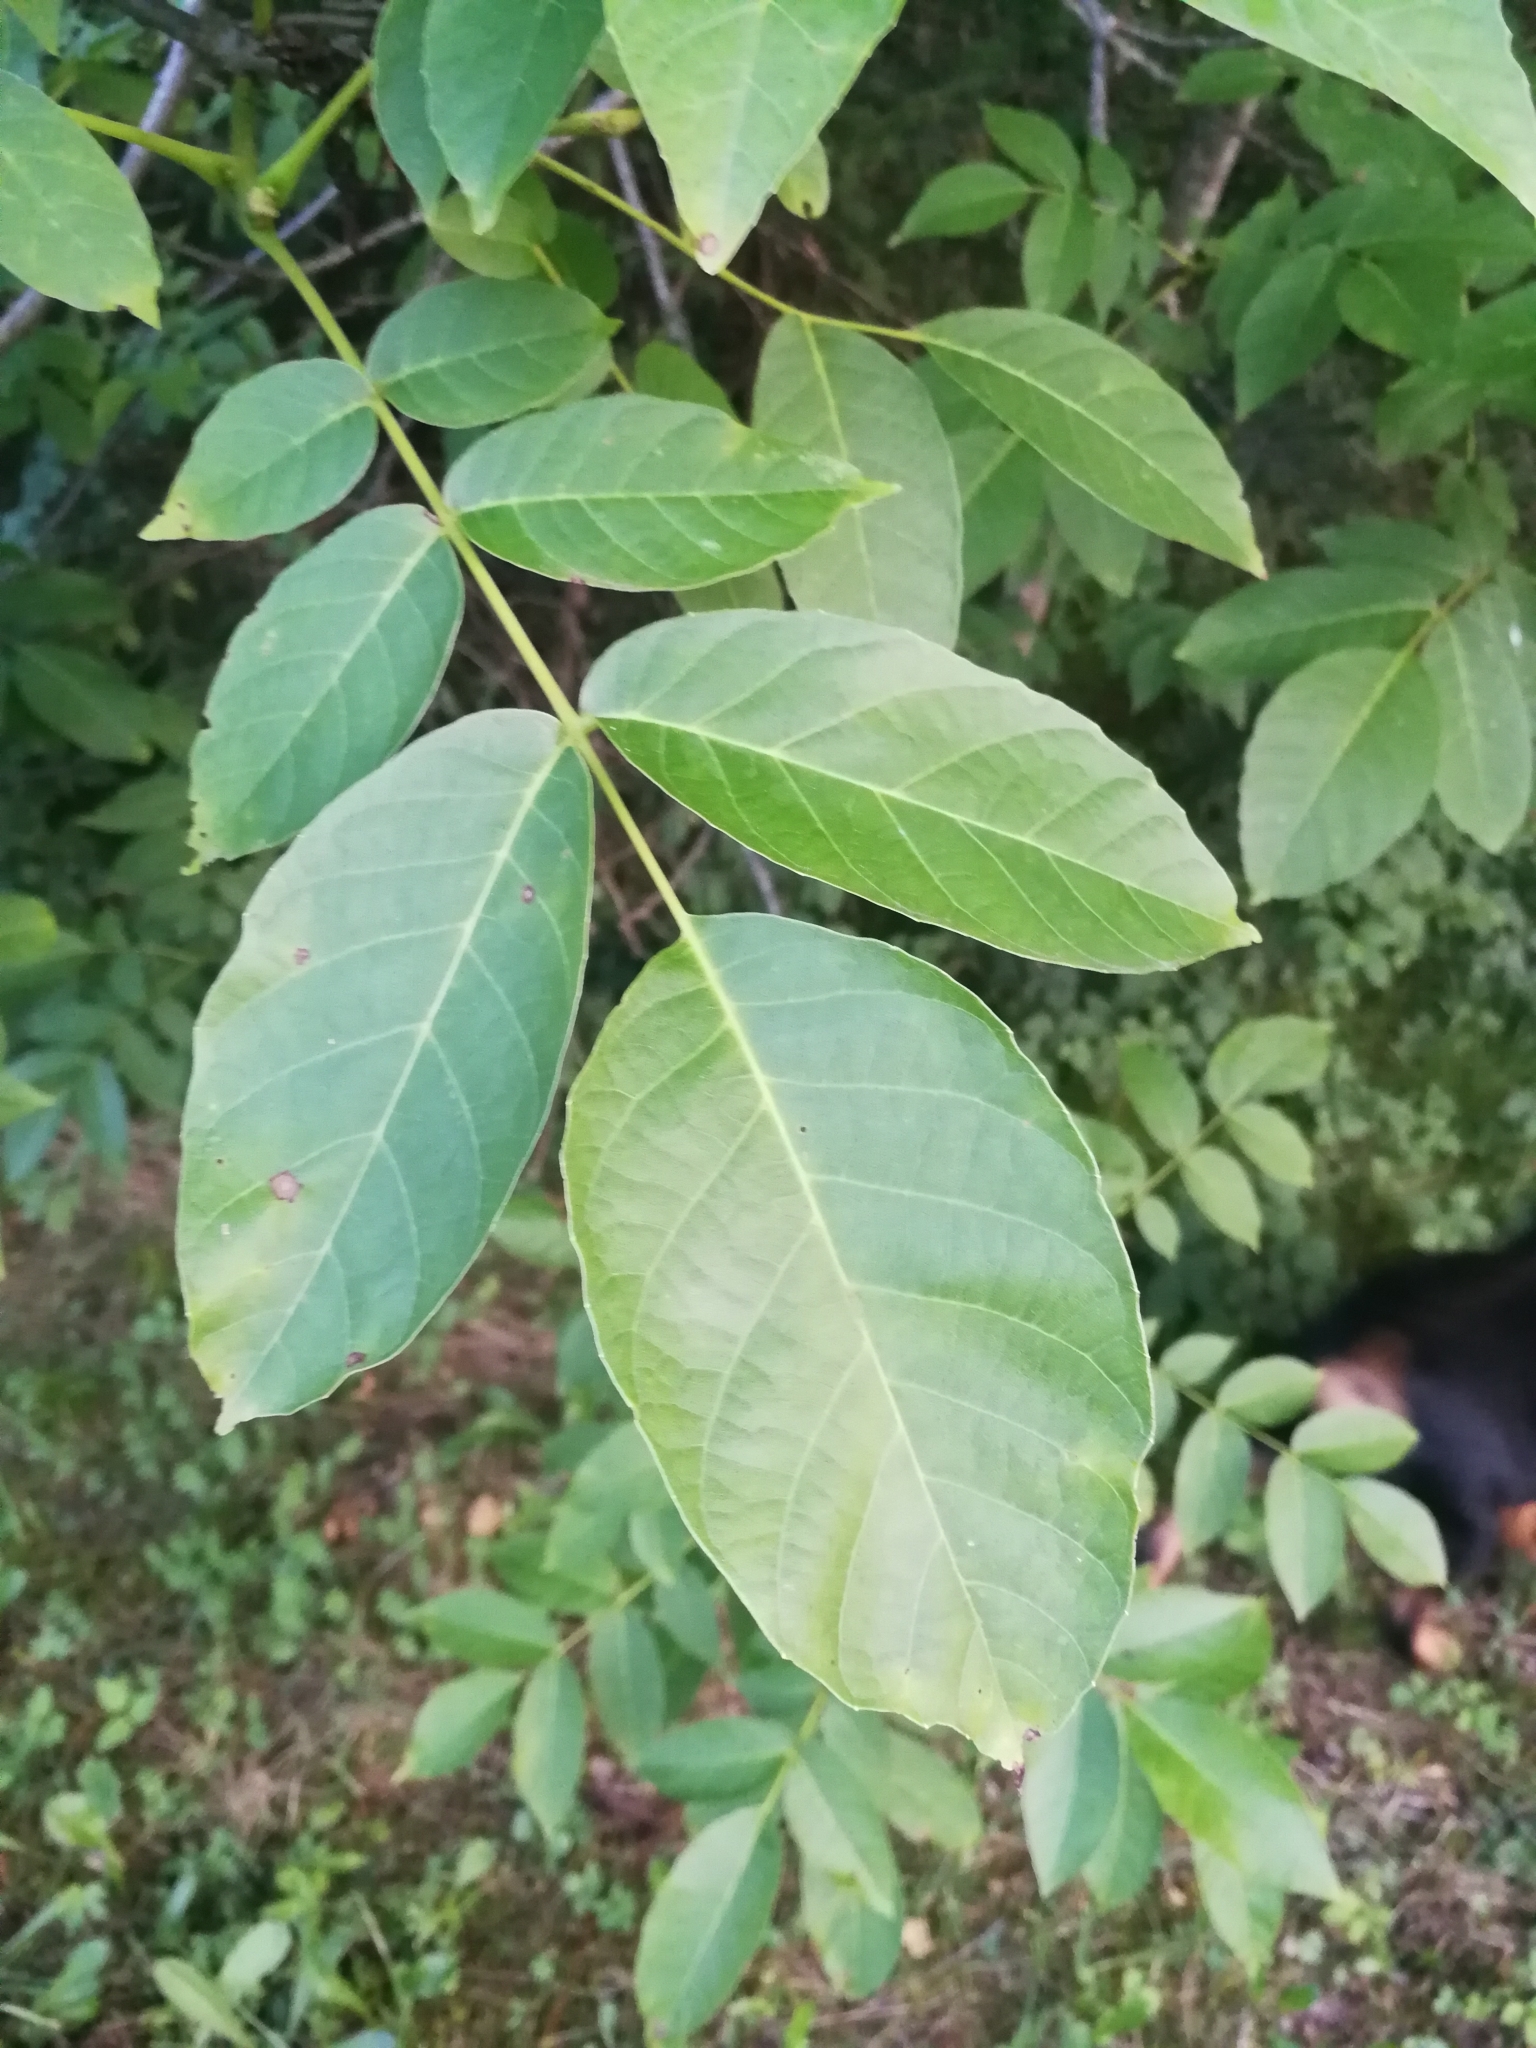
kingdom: Plantae
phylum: Tracheophyta
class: Magnoliopsida
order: Fagales
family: Juglandaceae
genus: Juglans
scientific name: Juglans regia
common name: Walnut
